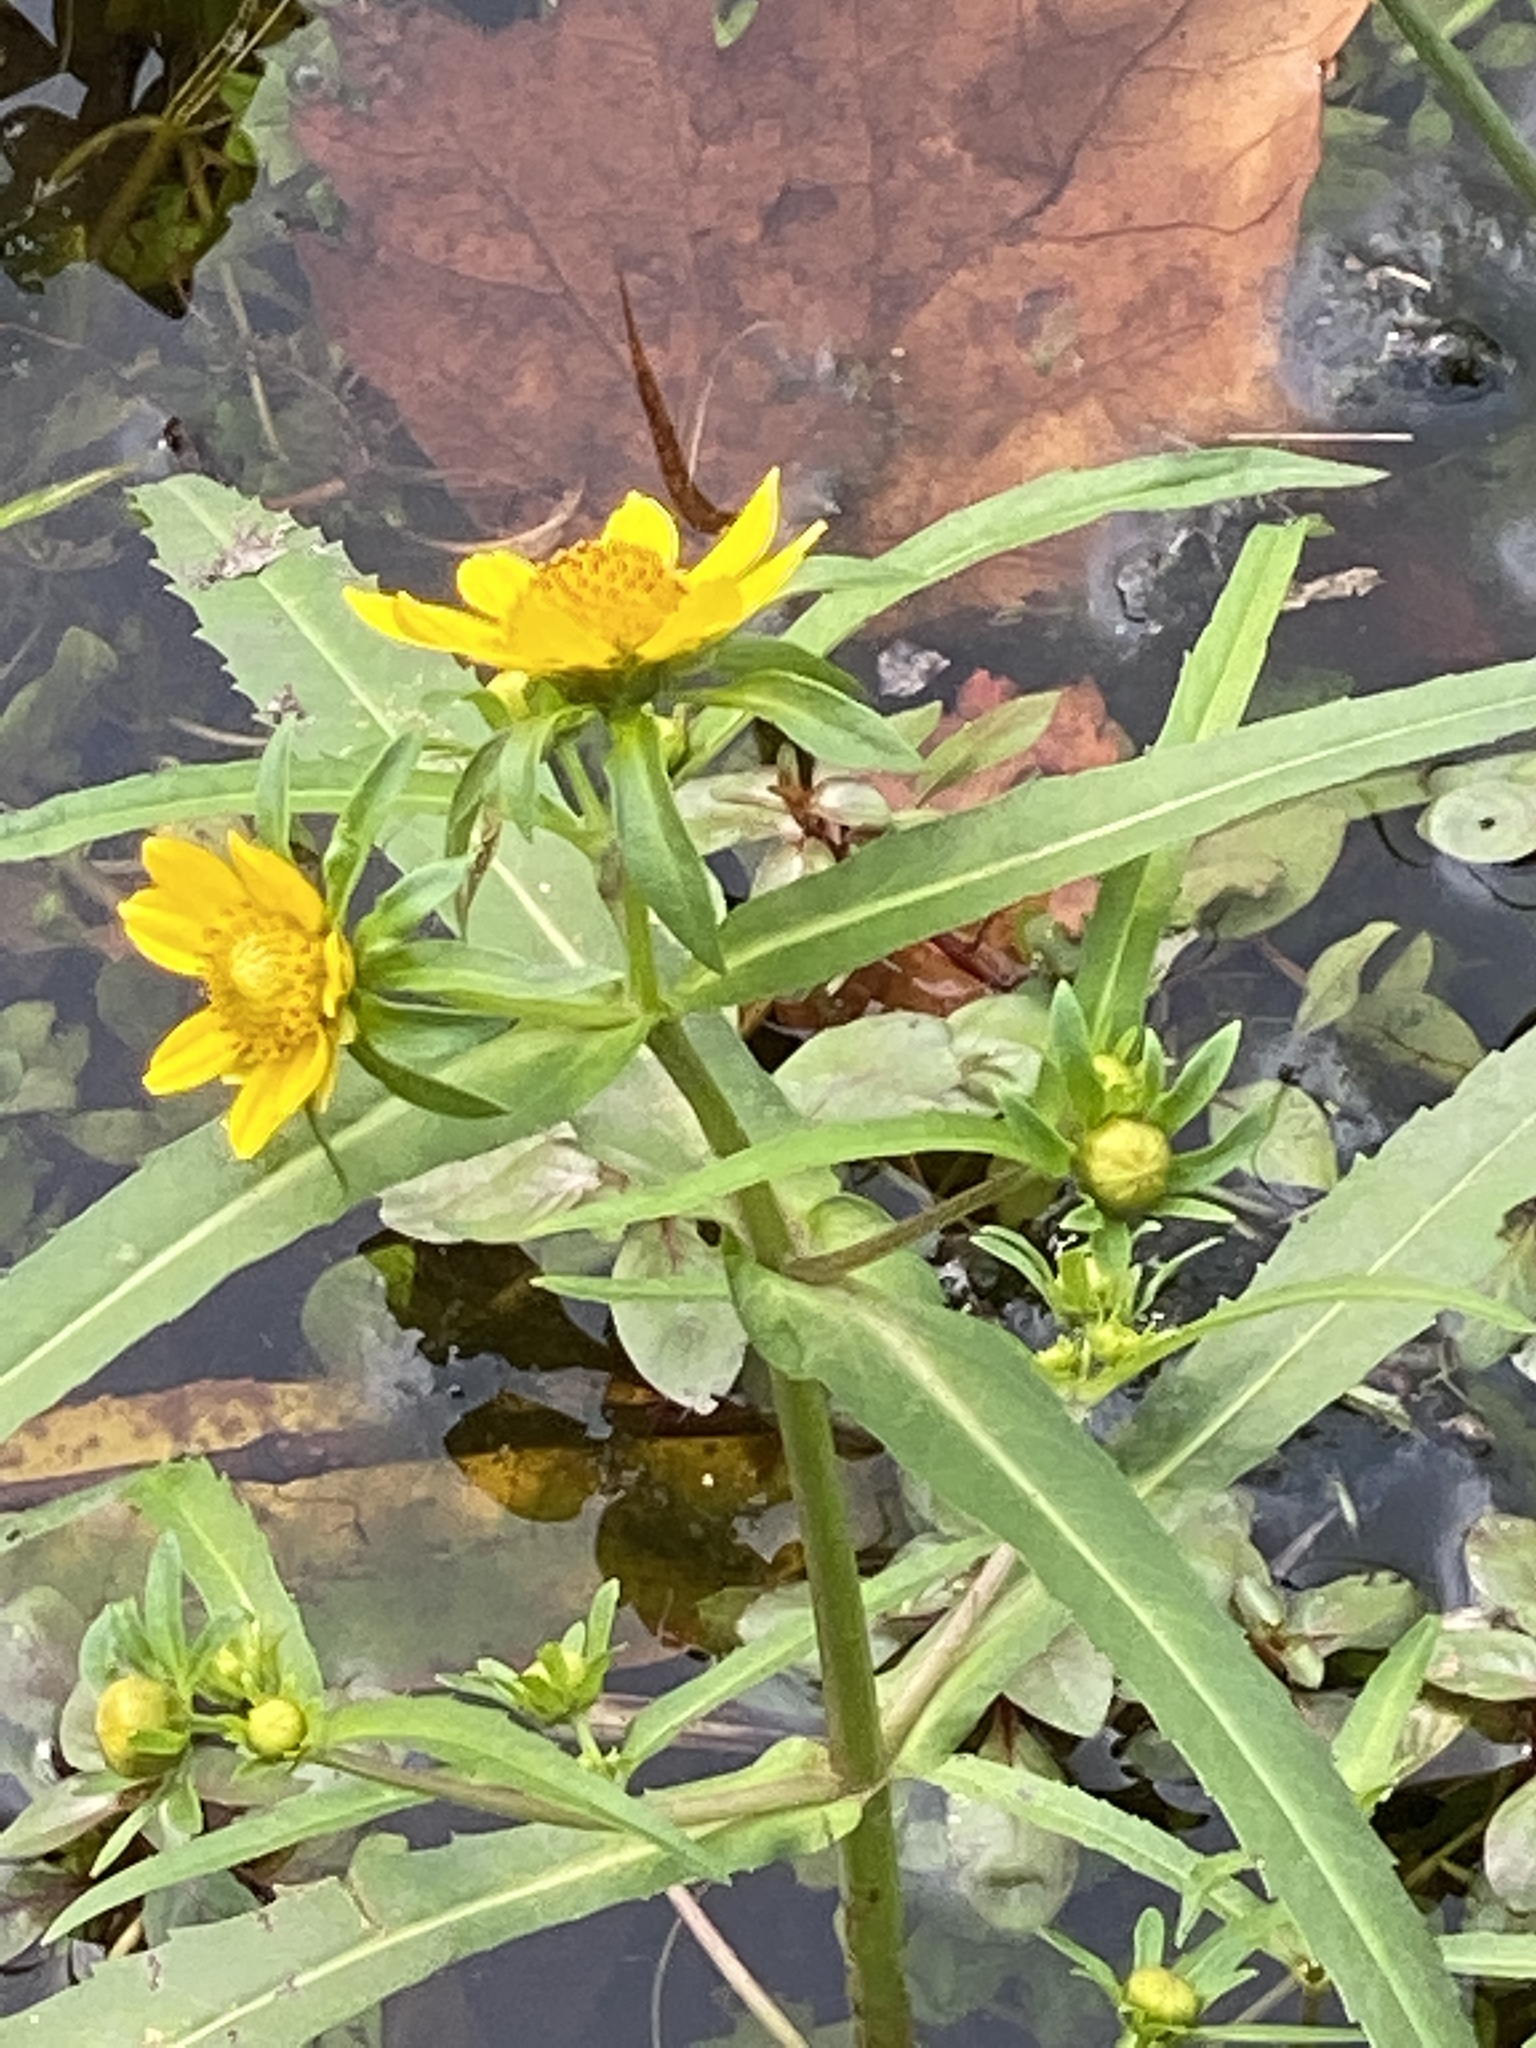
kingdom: Plantae
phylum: Tracheophyta
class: Magnoliopsida
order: Asterales
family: Asteraceae
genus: Bidens
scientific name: Bidens cernua
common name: Nodding bur-marigold
